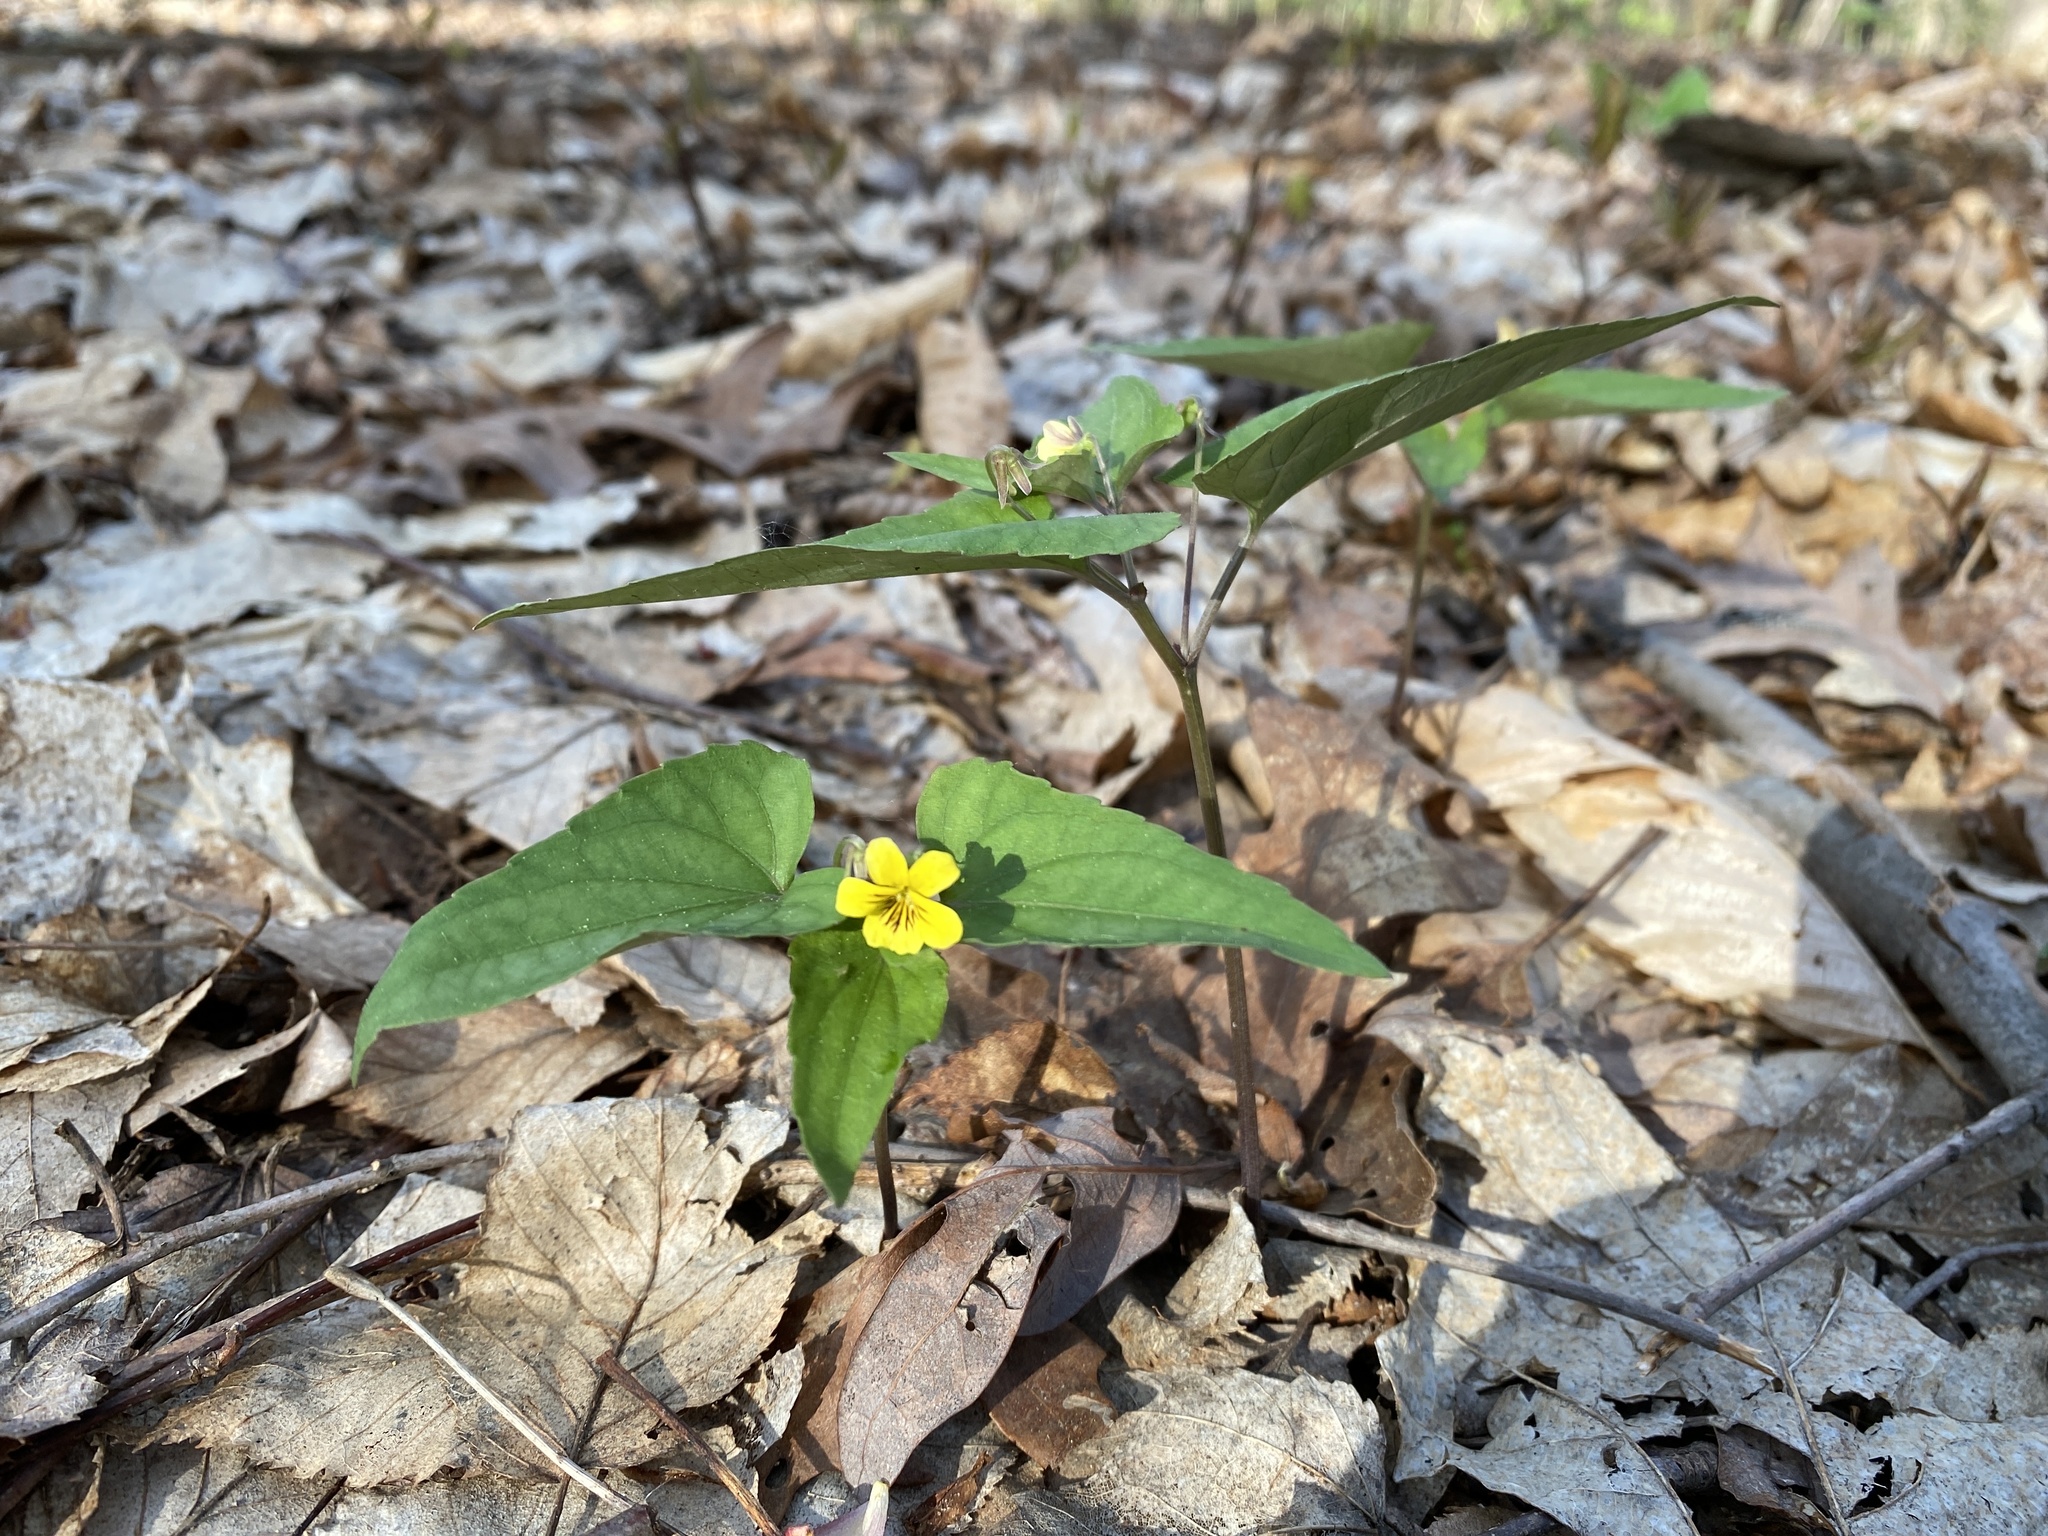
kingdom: Plantae
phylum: Tracheophyta
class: Magnoliopsida
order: Malpighiales
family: Violaceae
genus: Viola
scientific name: Viola hastata
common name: Spear-leaf violet
